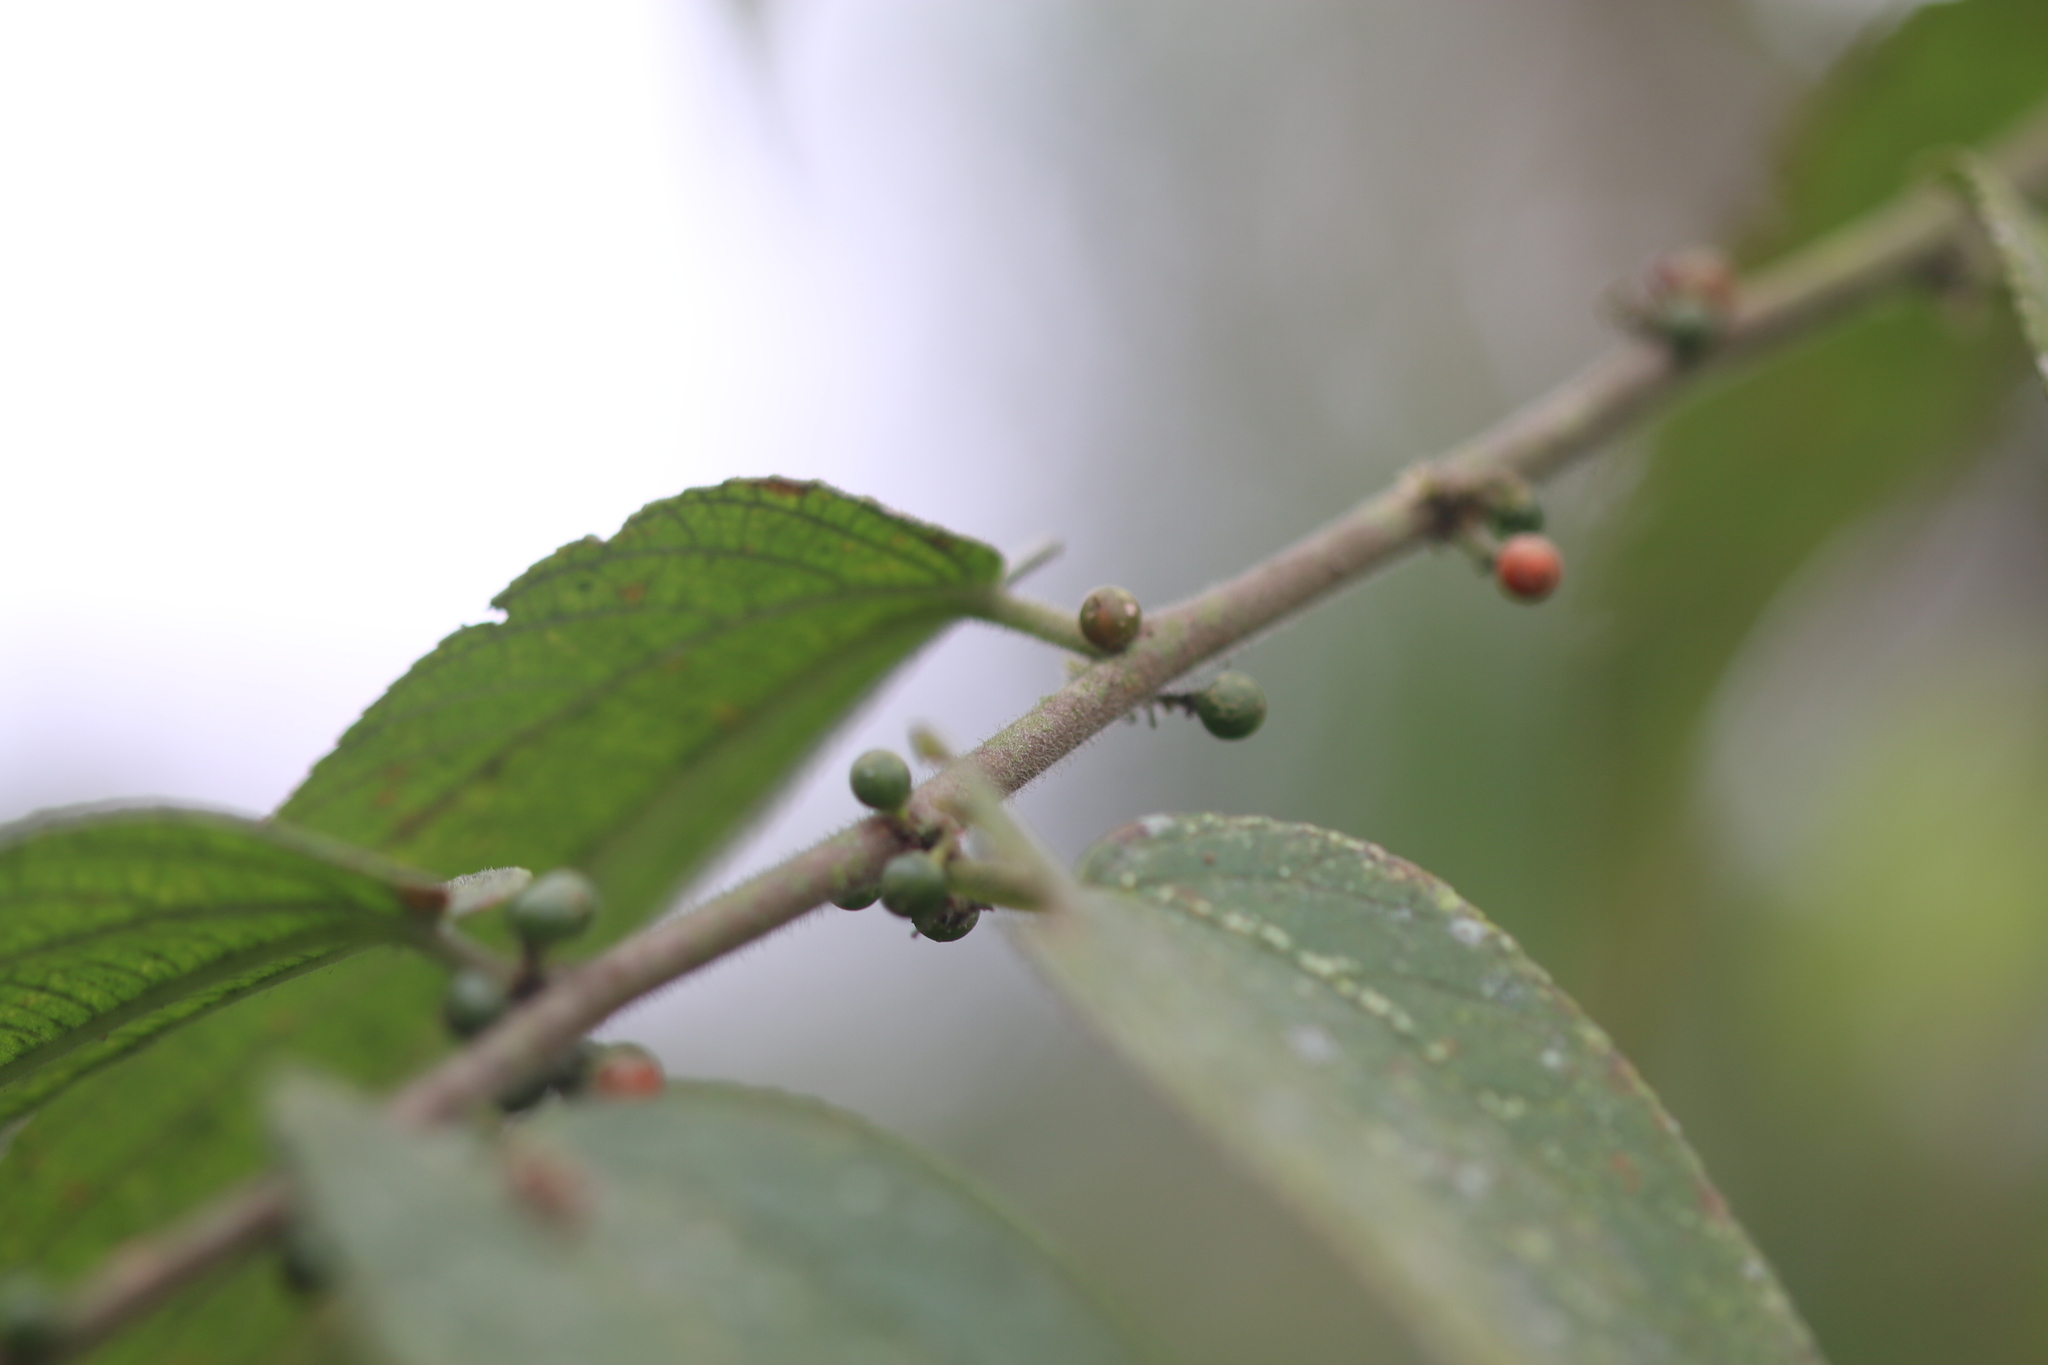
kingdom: Plantae
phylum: Tracheophyta
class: Magnoliopsida
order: Rosales
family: Cannabaceae
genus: Trema
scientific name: Trema micranthum
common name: Jamaican nettletree
